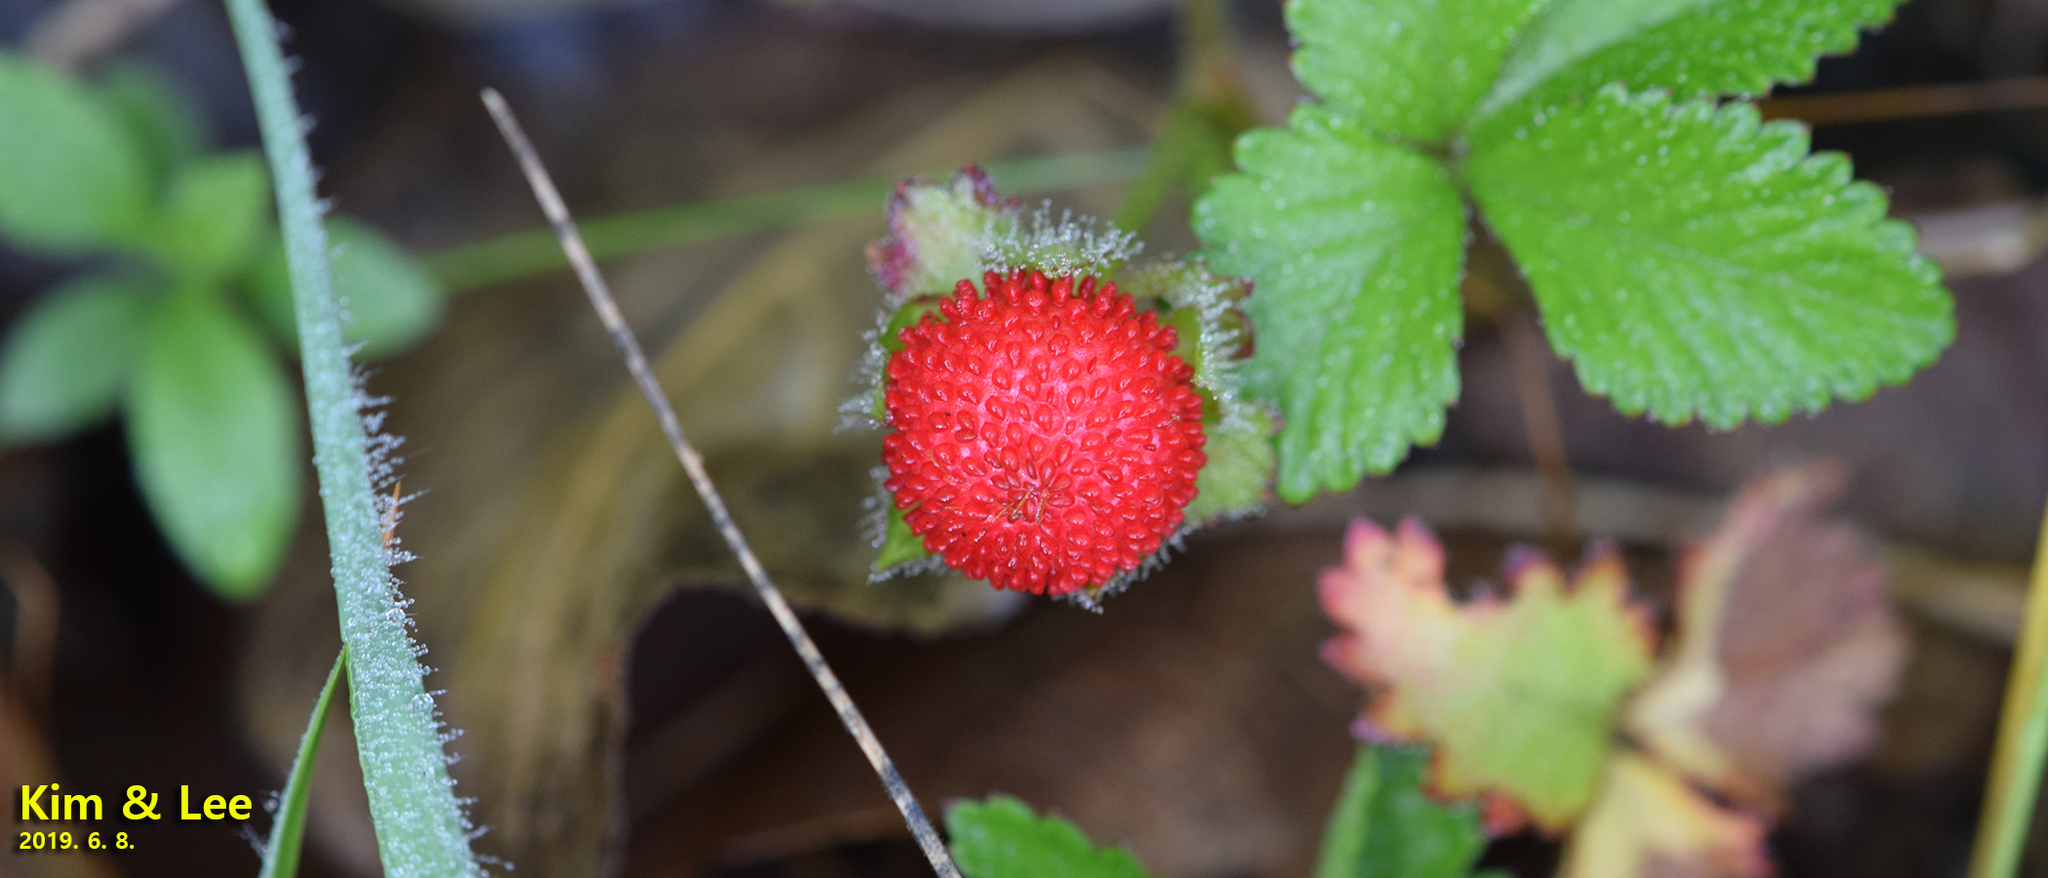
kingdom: Plantae
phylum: Tracheophyta
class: Magnoliopsida
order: Rosales
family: Rosaceae
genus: Potentilla
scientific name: Potentilla indica
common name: Yellow-flowered strawberry
